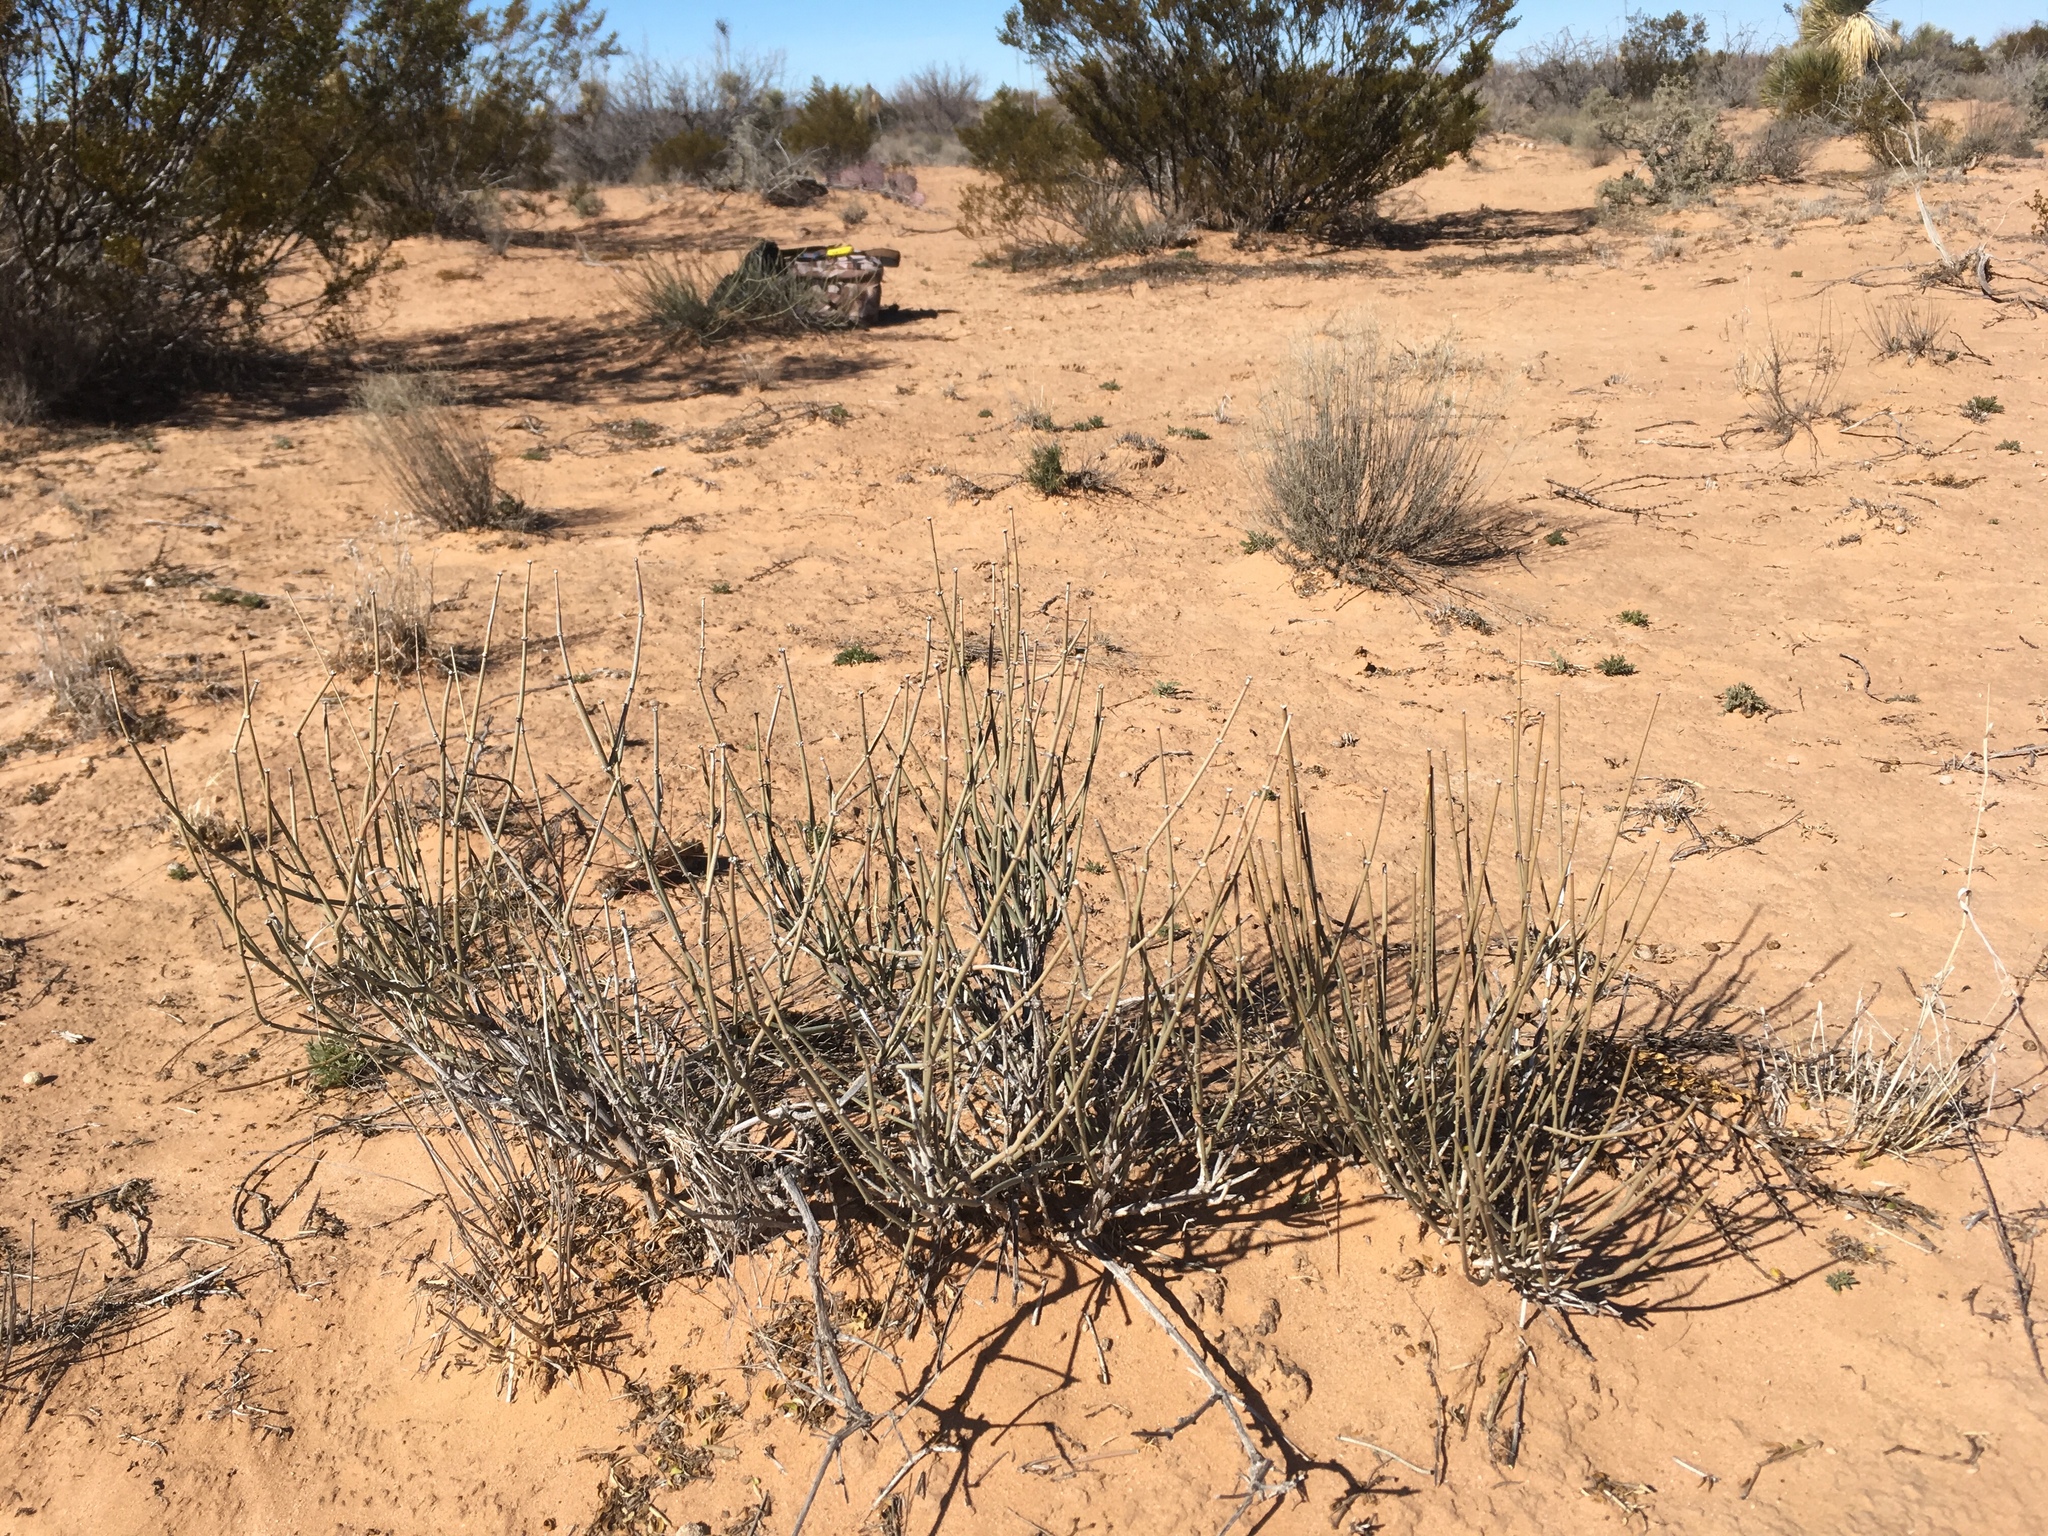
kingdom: Plantae
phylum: Tracheophyta
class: Gnetopsida
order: Ephedrales
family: Ephedraceae
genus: Ephedra
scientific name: Ephedra torreyana
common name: Torrey ephedra
